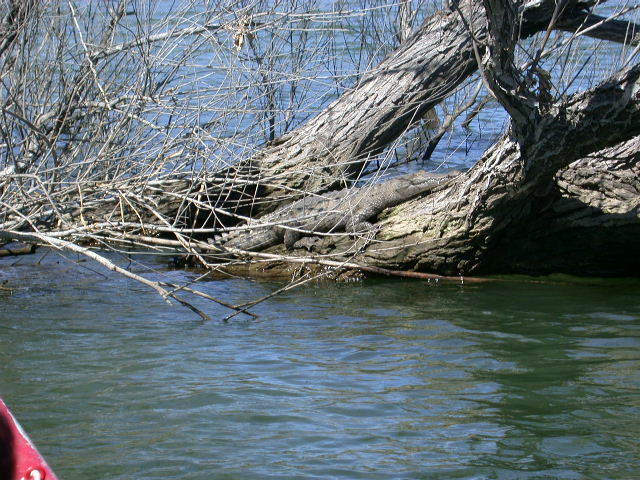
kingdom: Animalia
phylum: Chordata
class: Crocodylia
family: Crocodylidae
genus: Crocodylus
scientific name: Crocodylus acutus
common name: American crocodile
